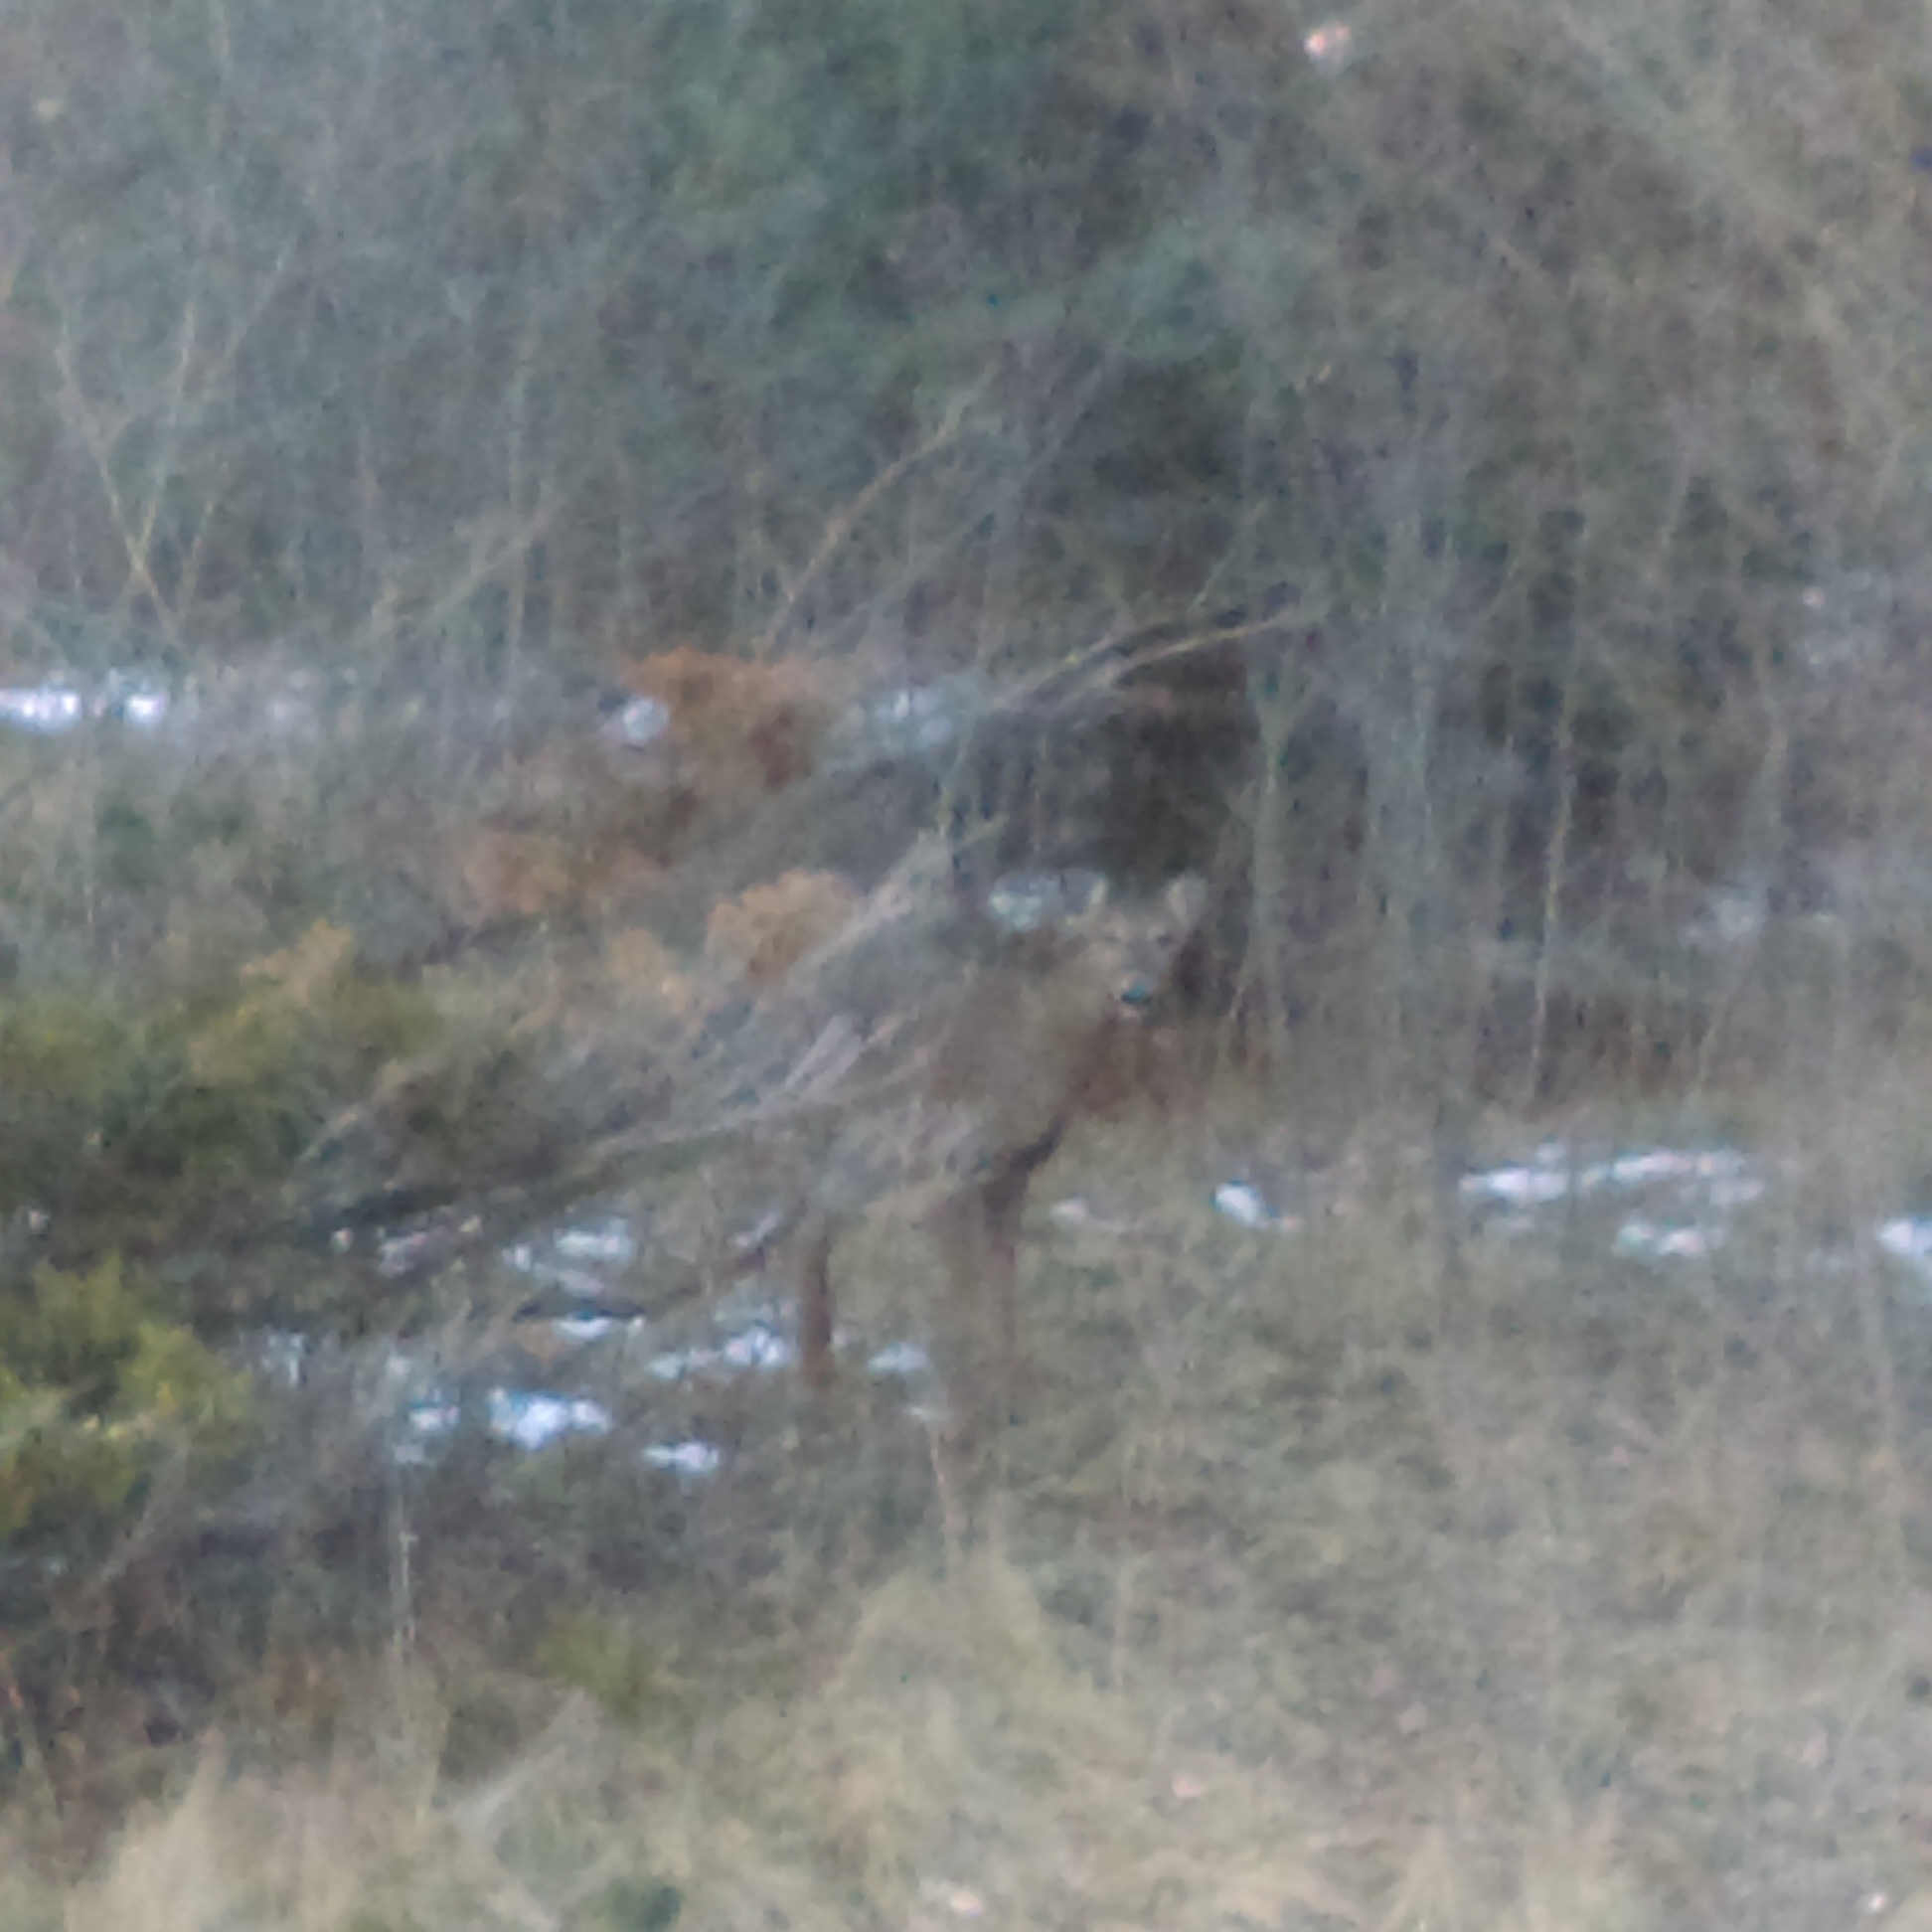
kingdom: Animalia
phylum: Chordata
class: Mammalia
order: Artiodactyla
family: Cervidae
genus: Odocoileus
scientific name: Odocoileus virginianus
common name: White-tailed deer
